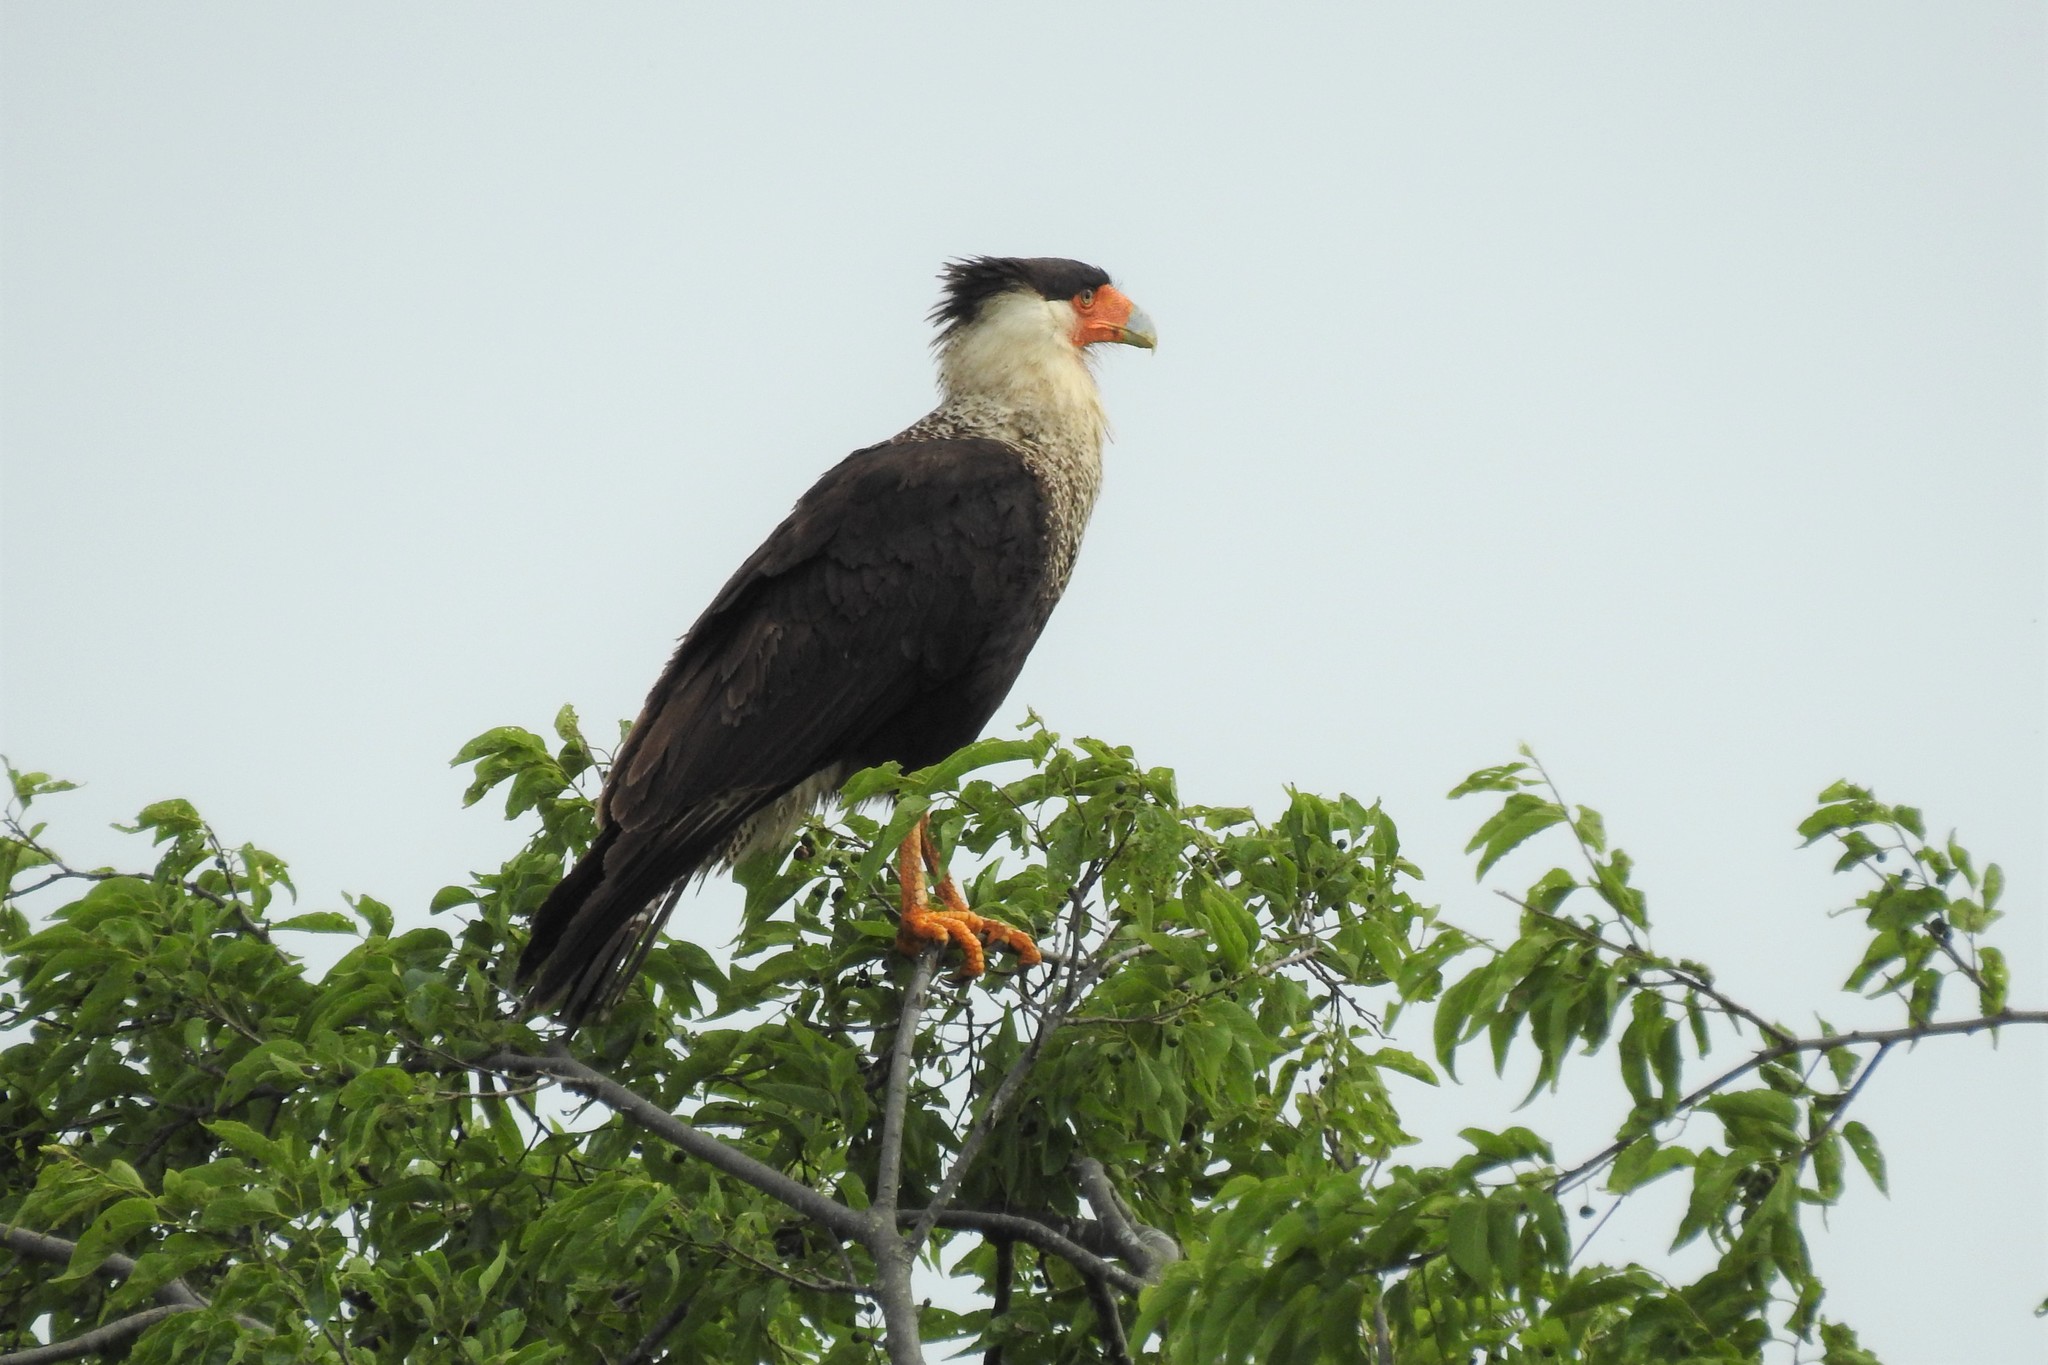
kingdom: Animalia
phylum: Chordata
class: Aves
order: Falconiformes
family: Falconidae
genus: Caracara
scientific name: Caracara plancus
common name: Southern caracara
